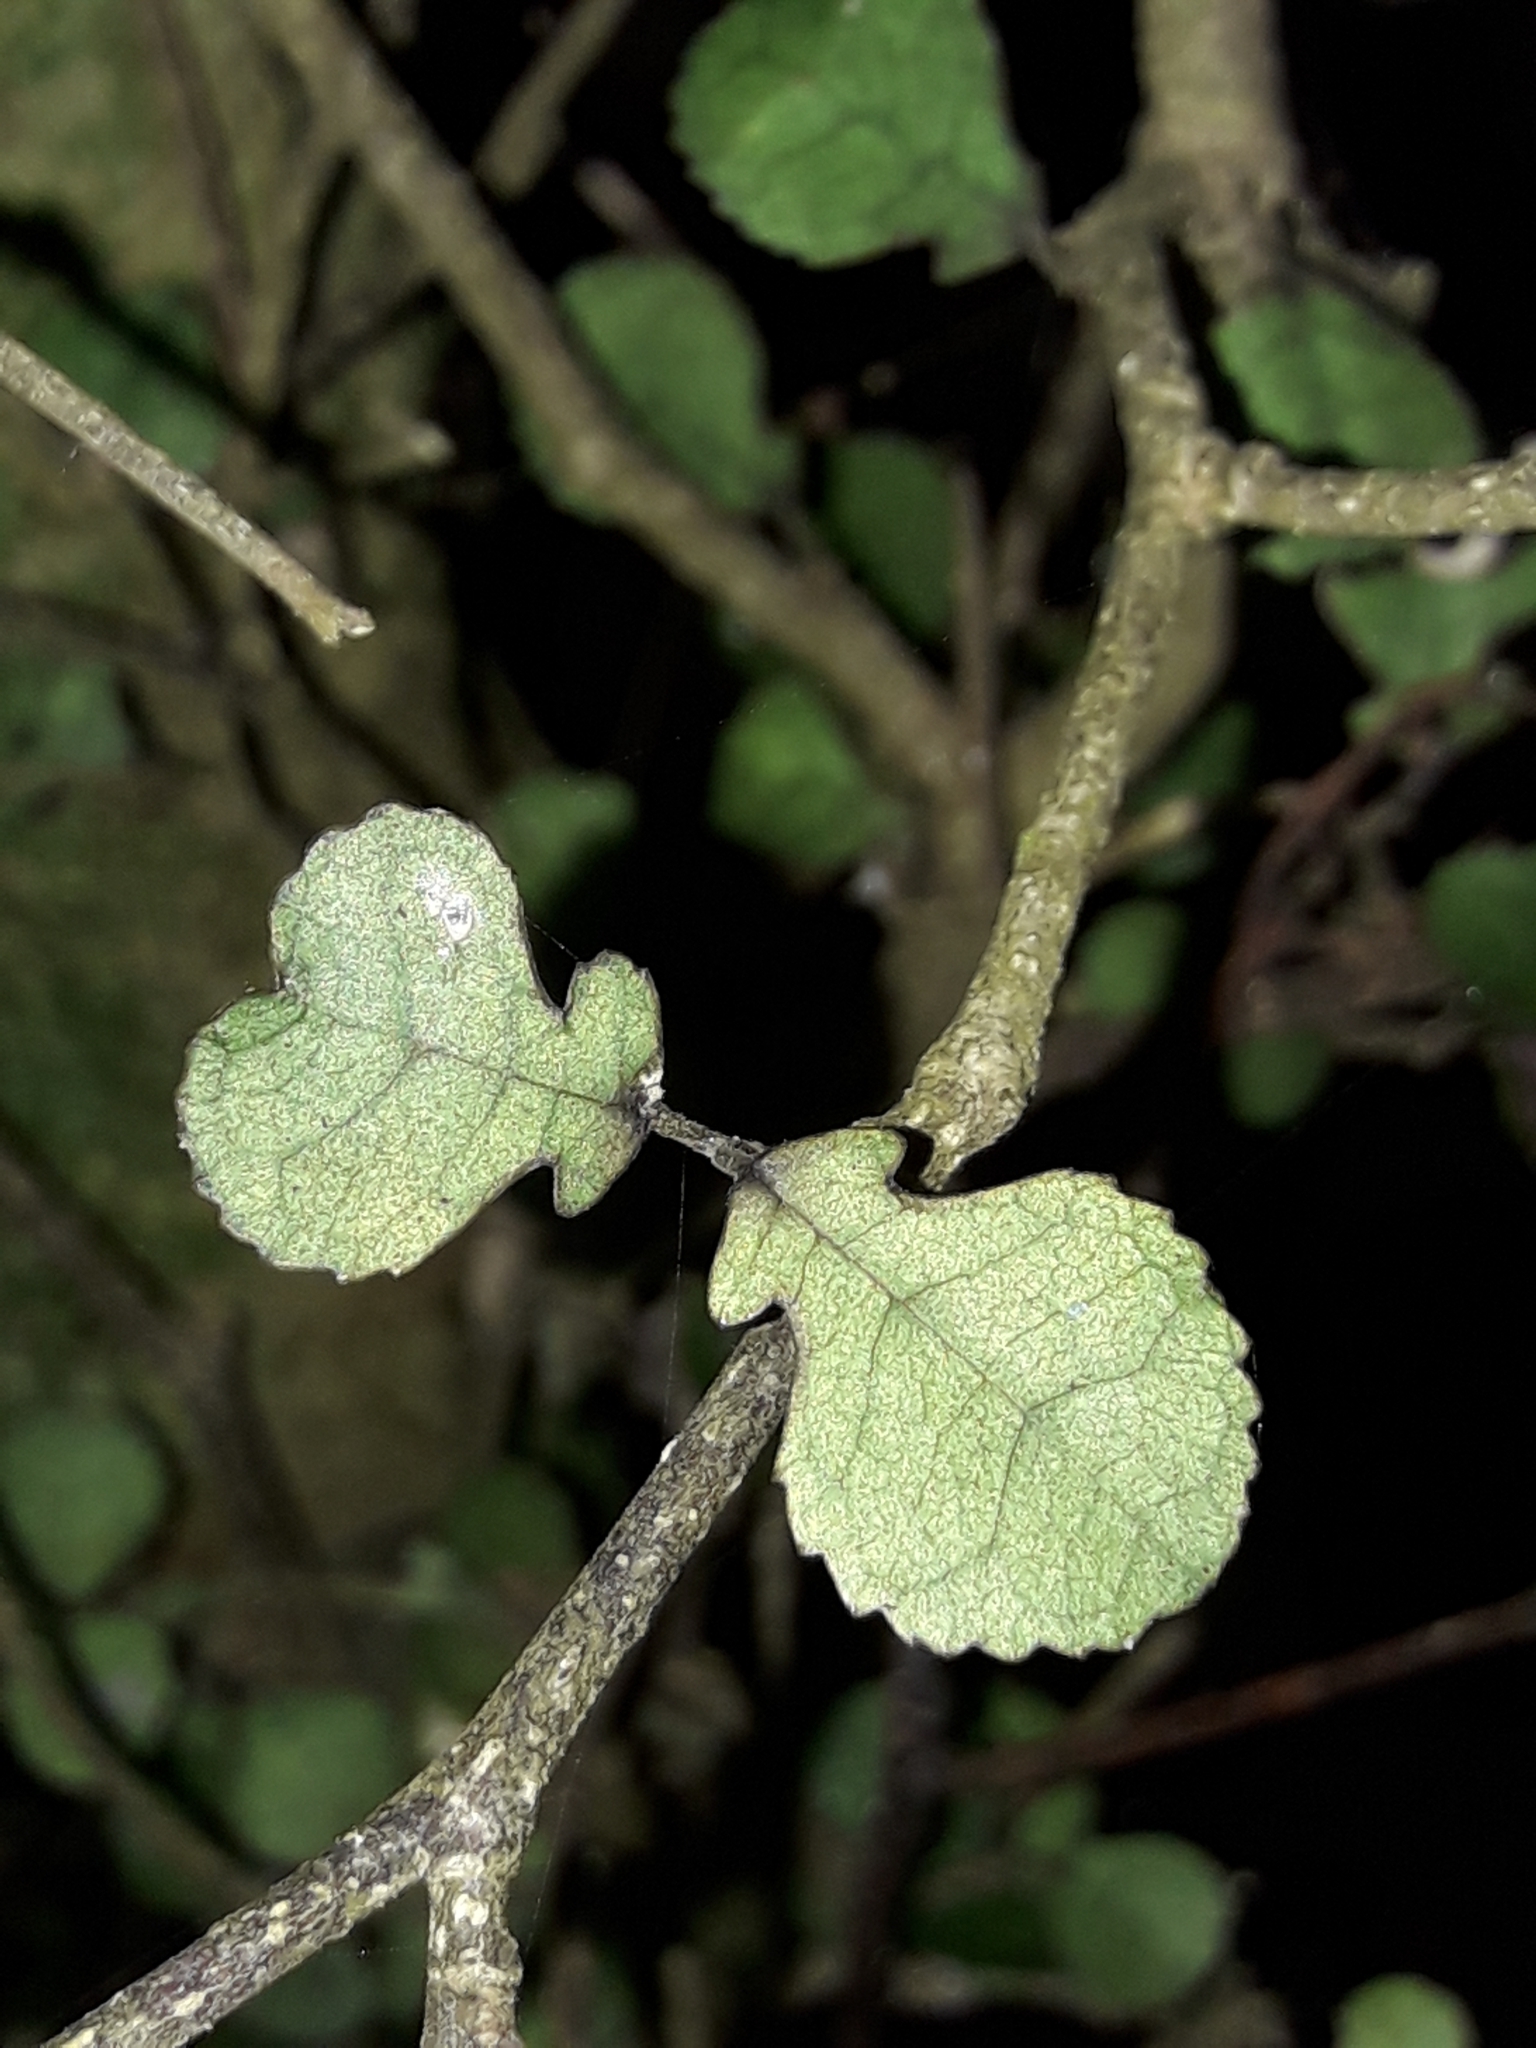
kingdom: Plantae
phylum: Tracheophyta
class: Magnoliopsida
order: Rosales
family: Moraceae
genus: Paratrophis
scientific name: Paratrophis microphylla
